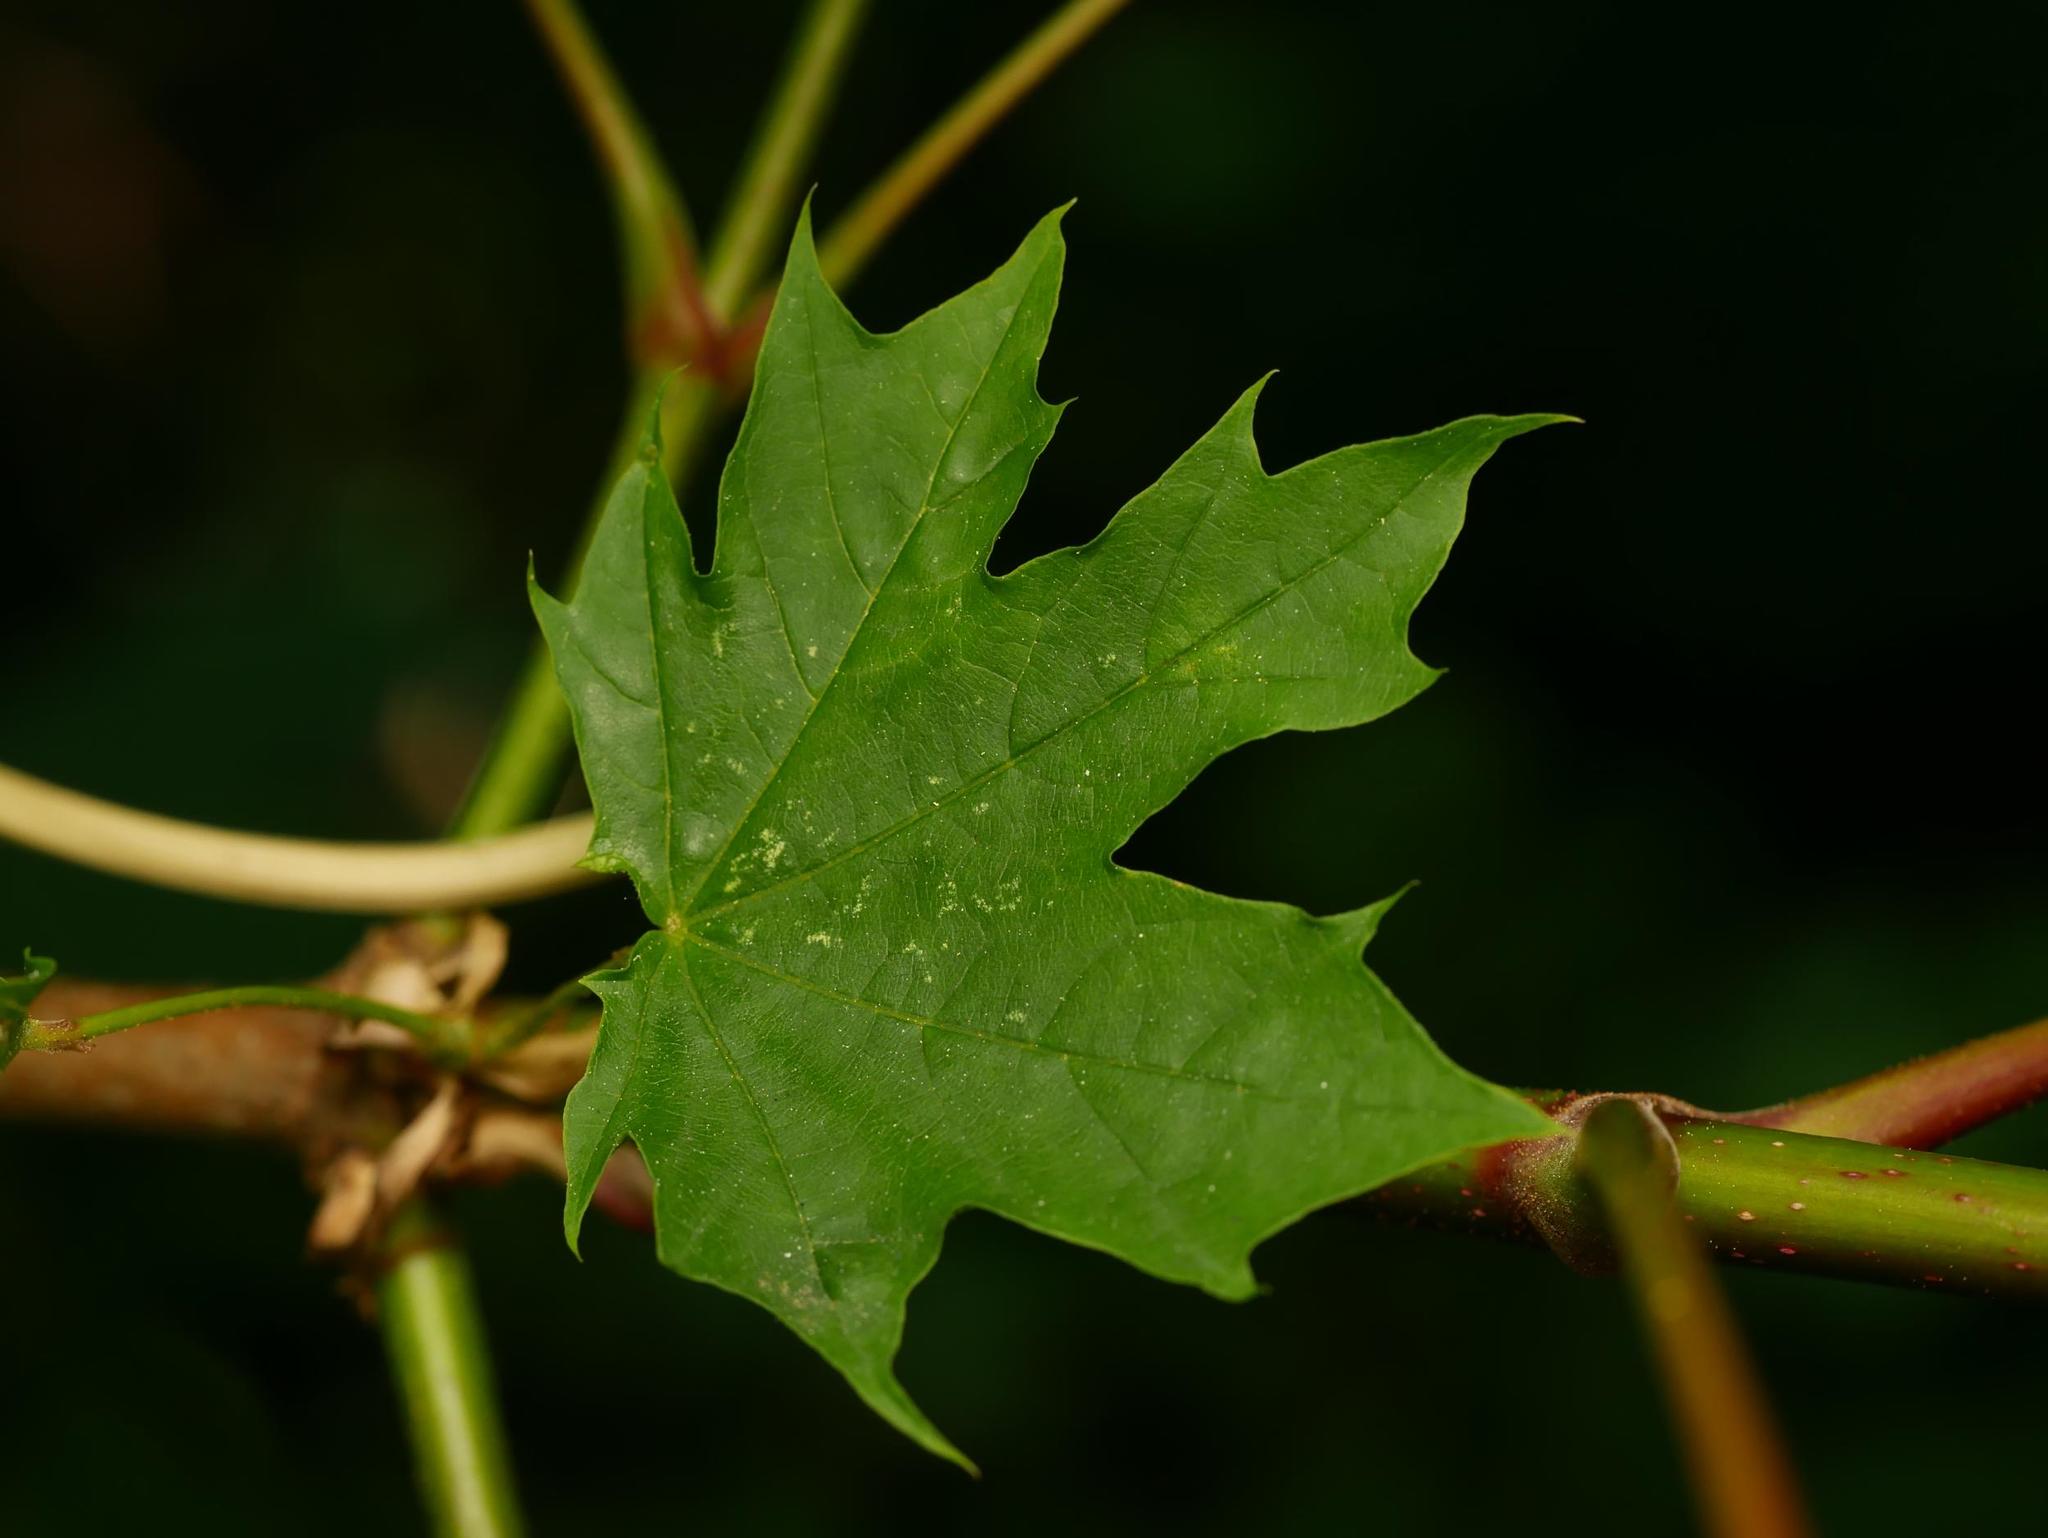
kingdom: Plantae
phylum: Tracheophyta
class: Magnoliopsida
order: Sapindales
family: Sapindaceae
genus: Acer
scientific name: Acer platanoides
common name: Norway maple
